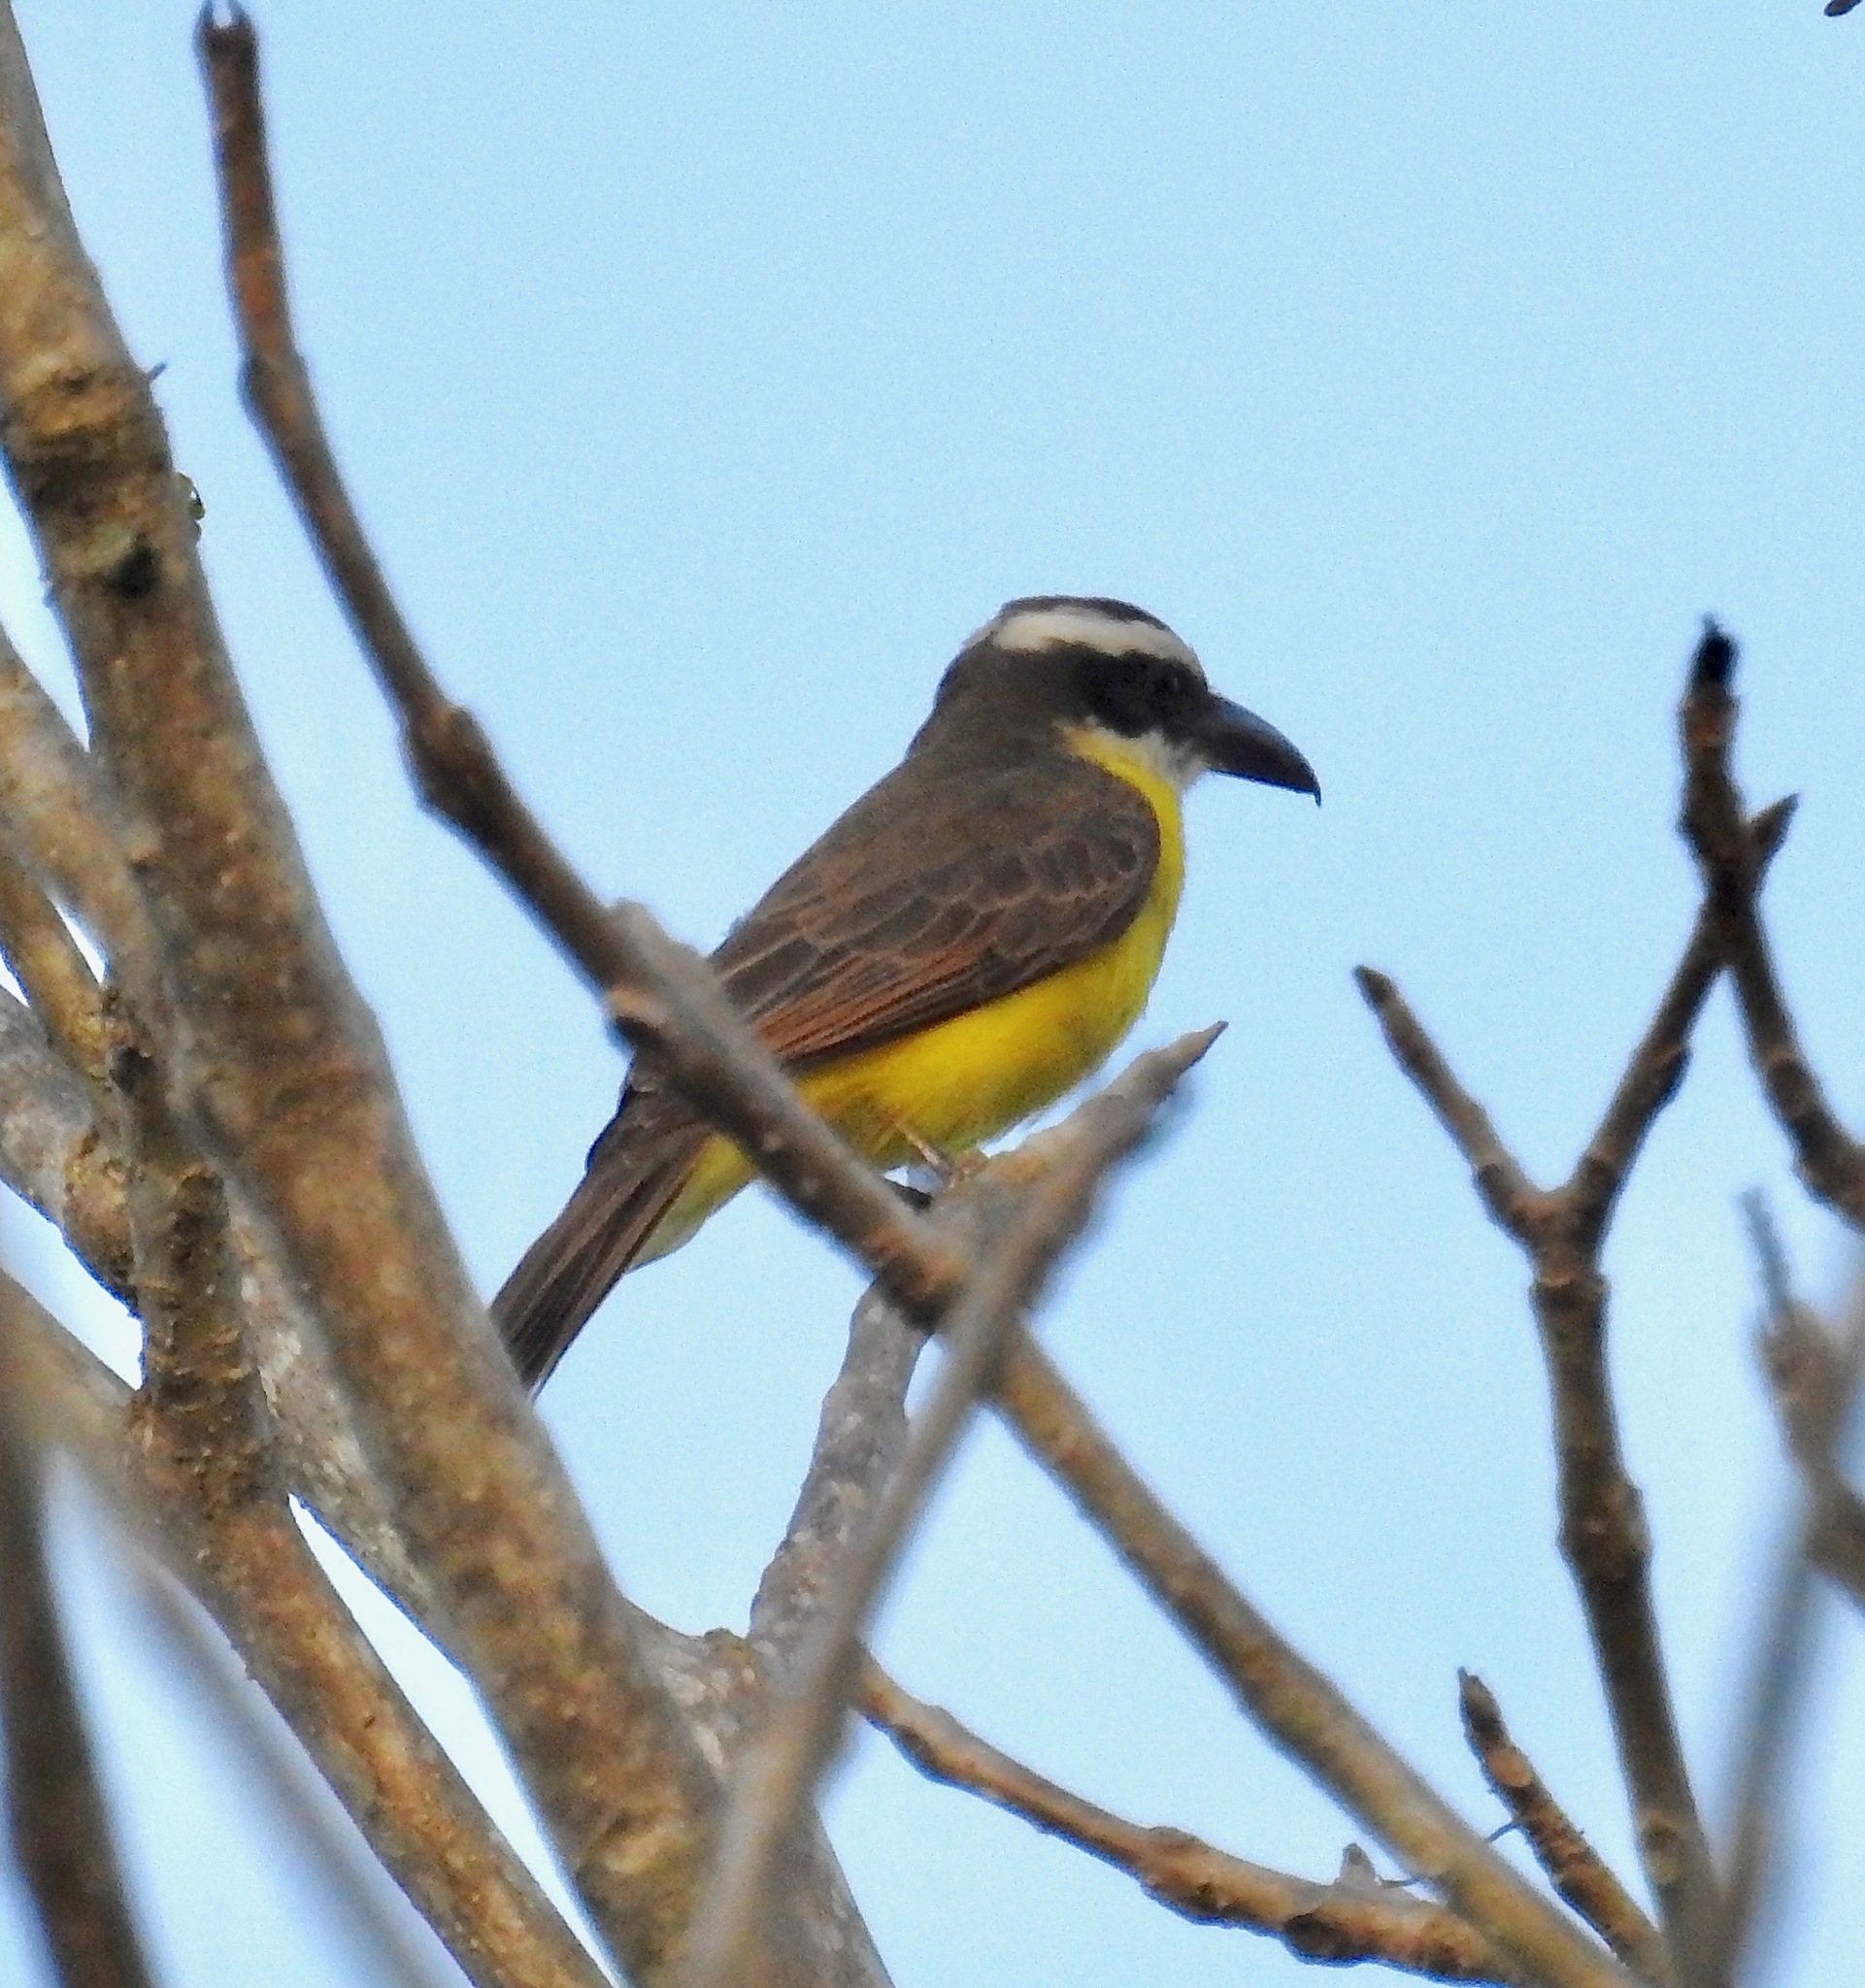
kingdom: Animalia
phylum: Chordata
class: Aves
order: Passeriformes
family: Tyrannidae
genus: Megarynchus
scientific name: Megarynchus pitangua
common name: Boat-billed flycatcher
